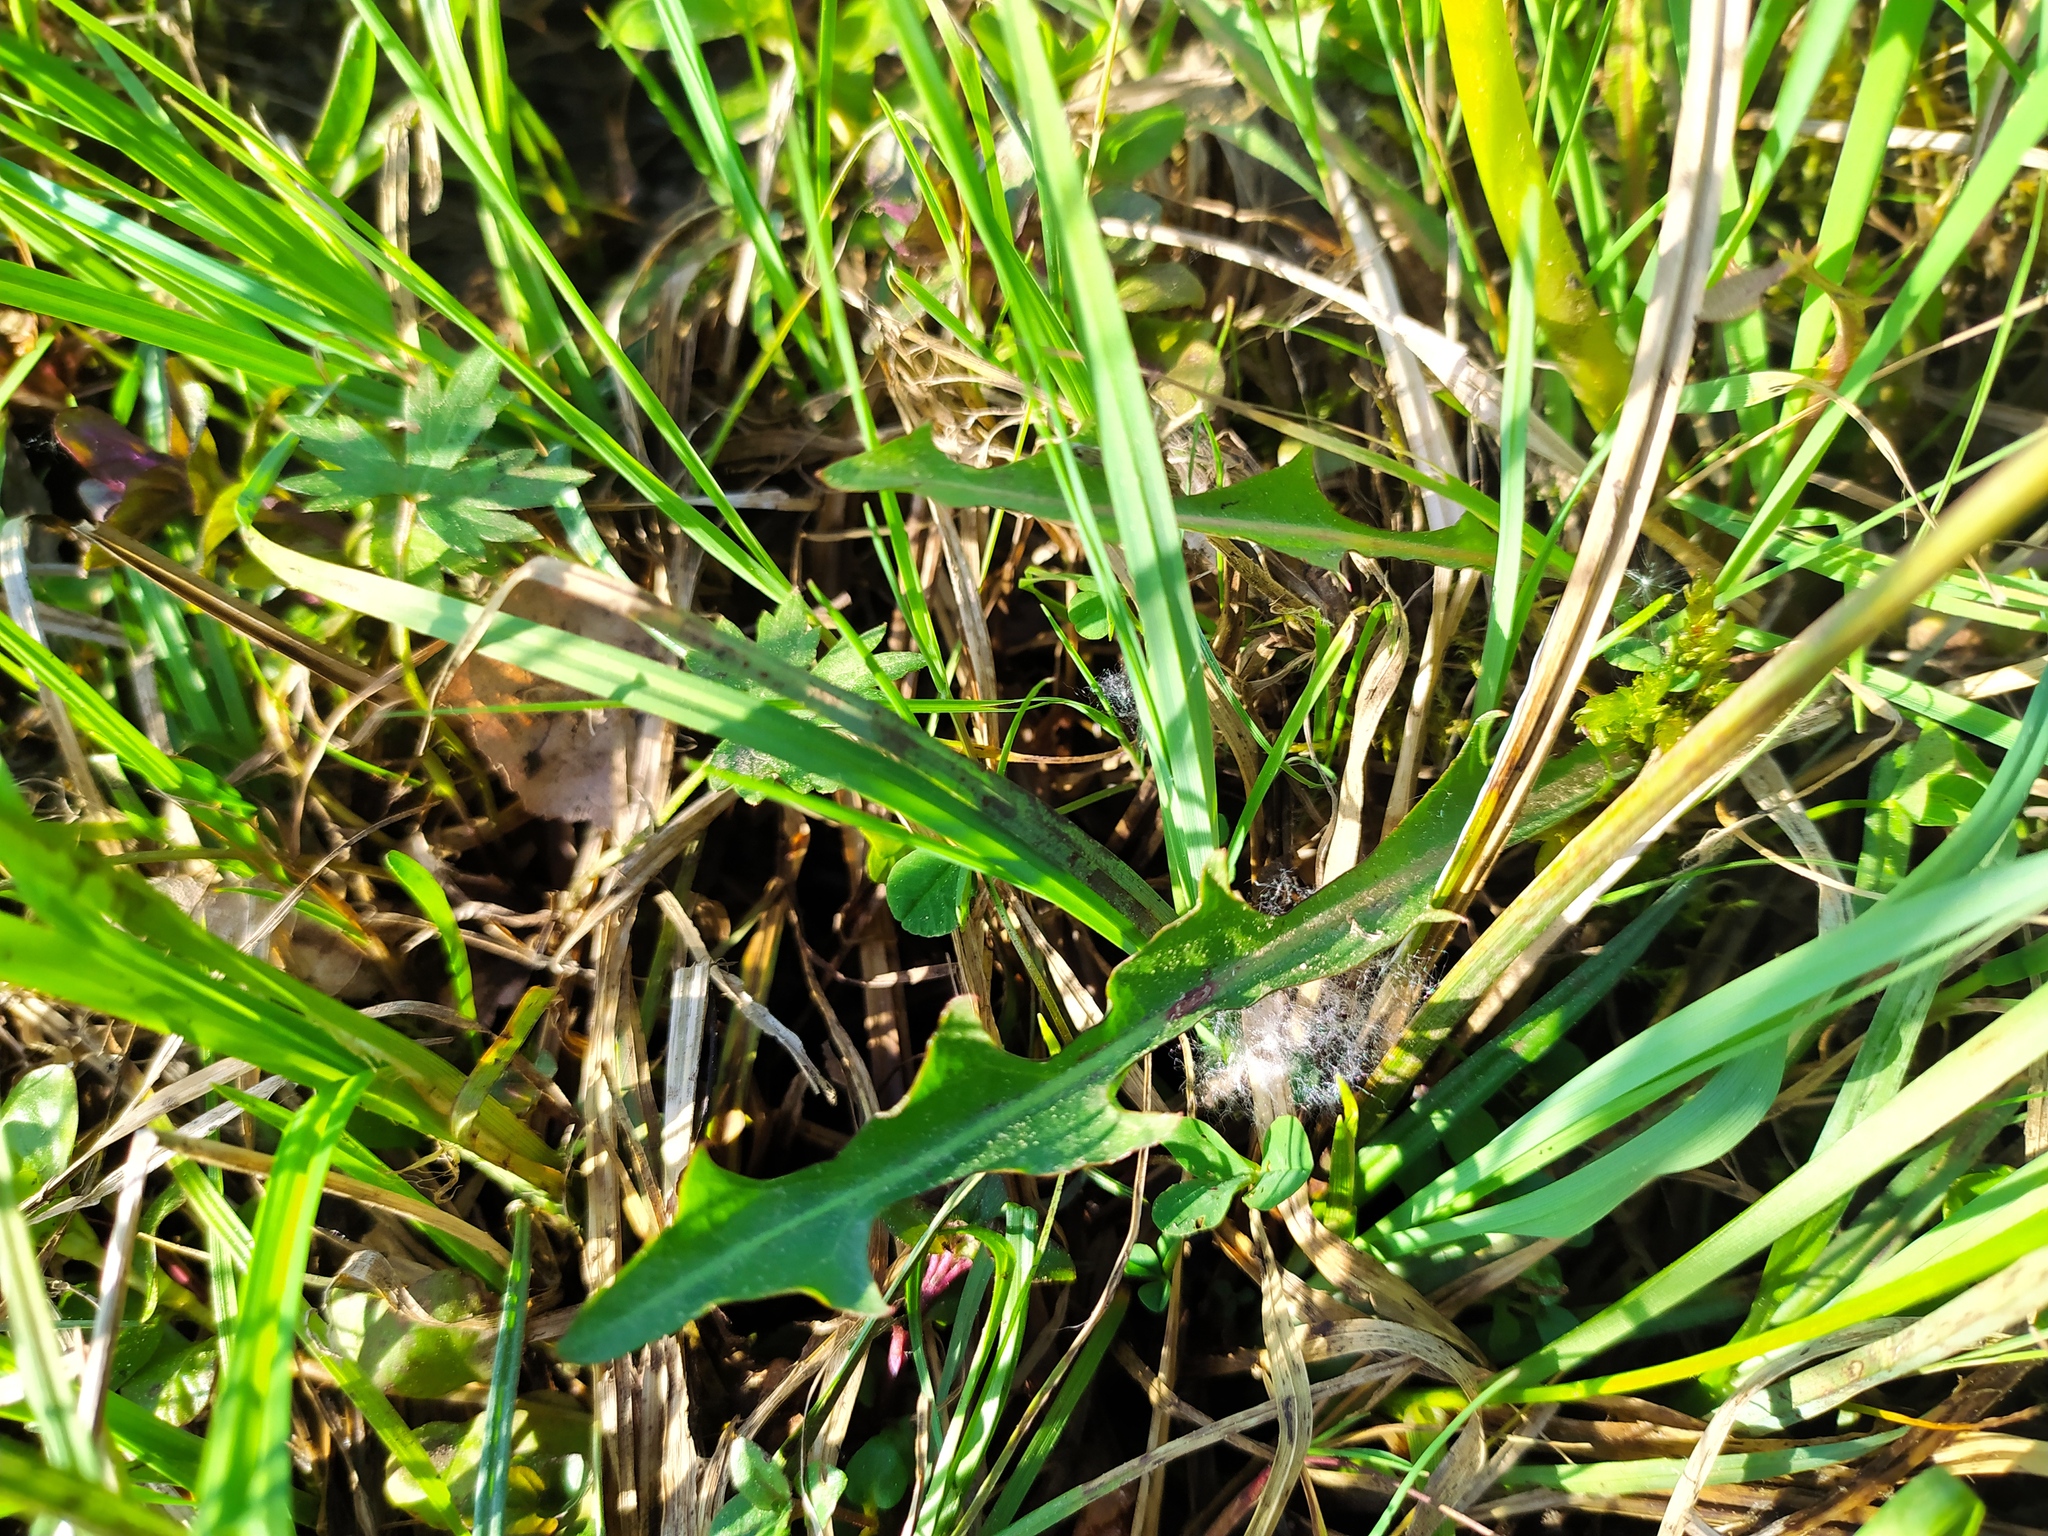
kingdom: Plantae
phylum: Tracheophyta
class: Magnoliopsida
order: Asterales
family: Asteraceae
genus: Taraxacum
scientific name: Taraxacum hollandicum
